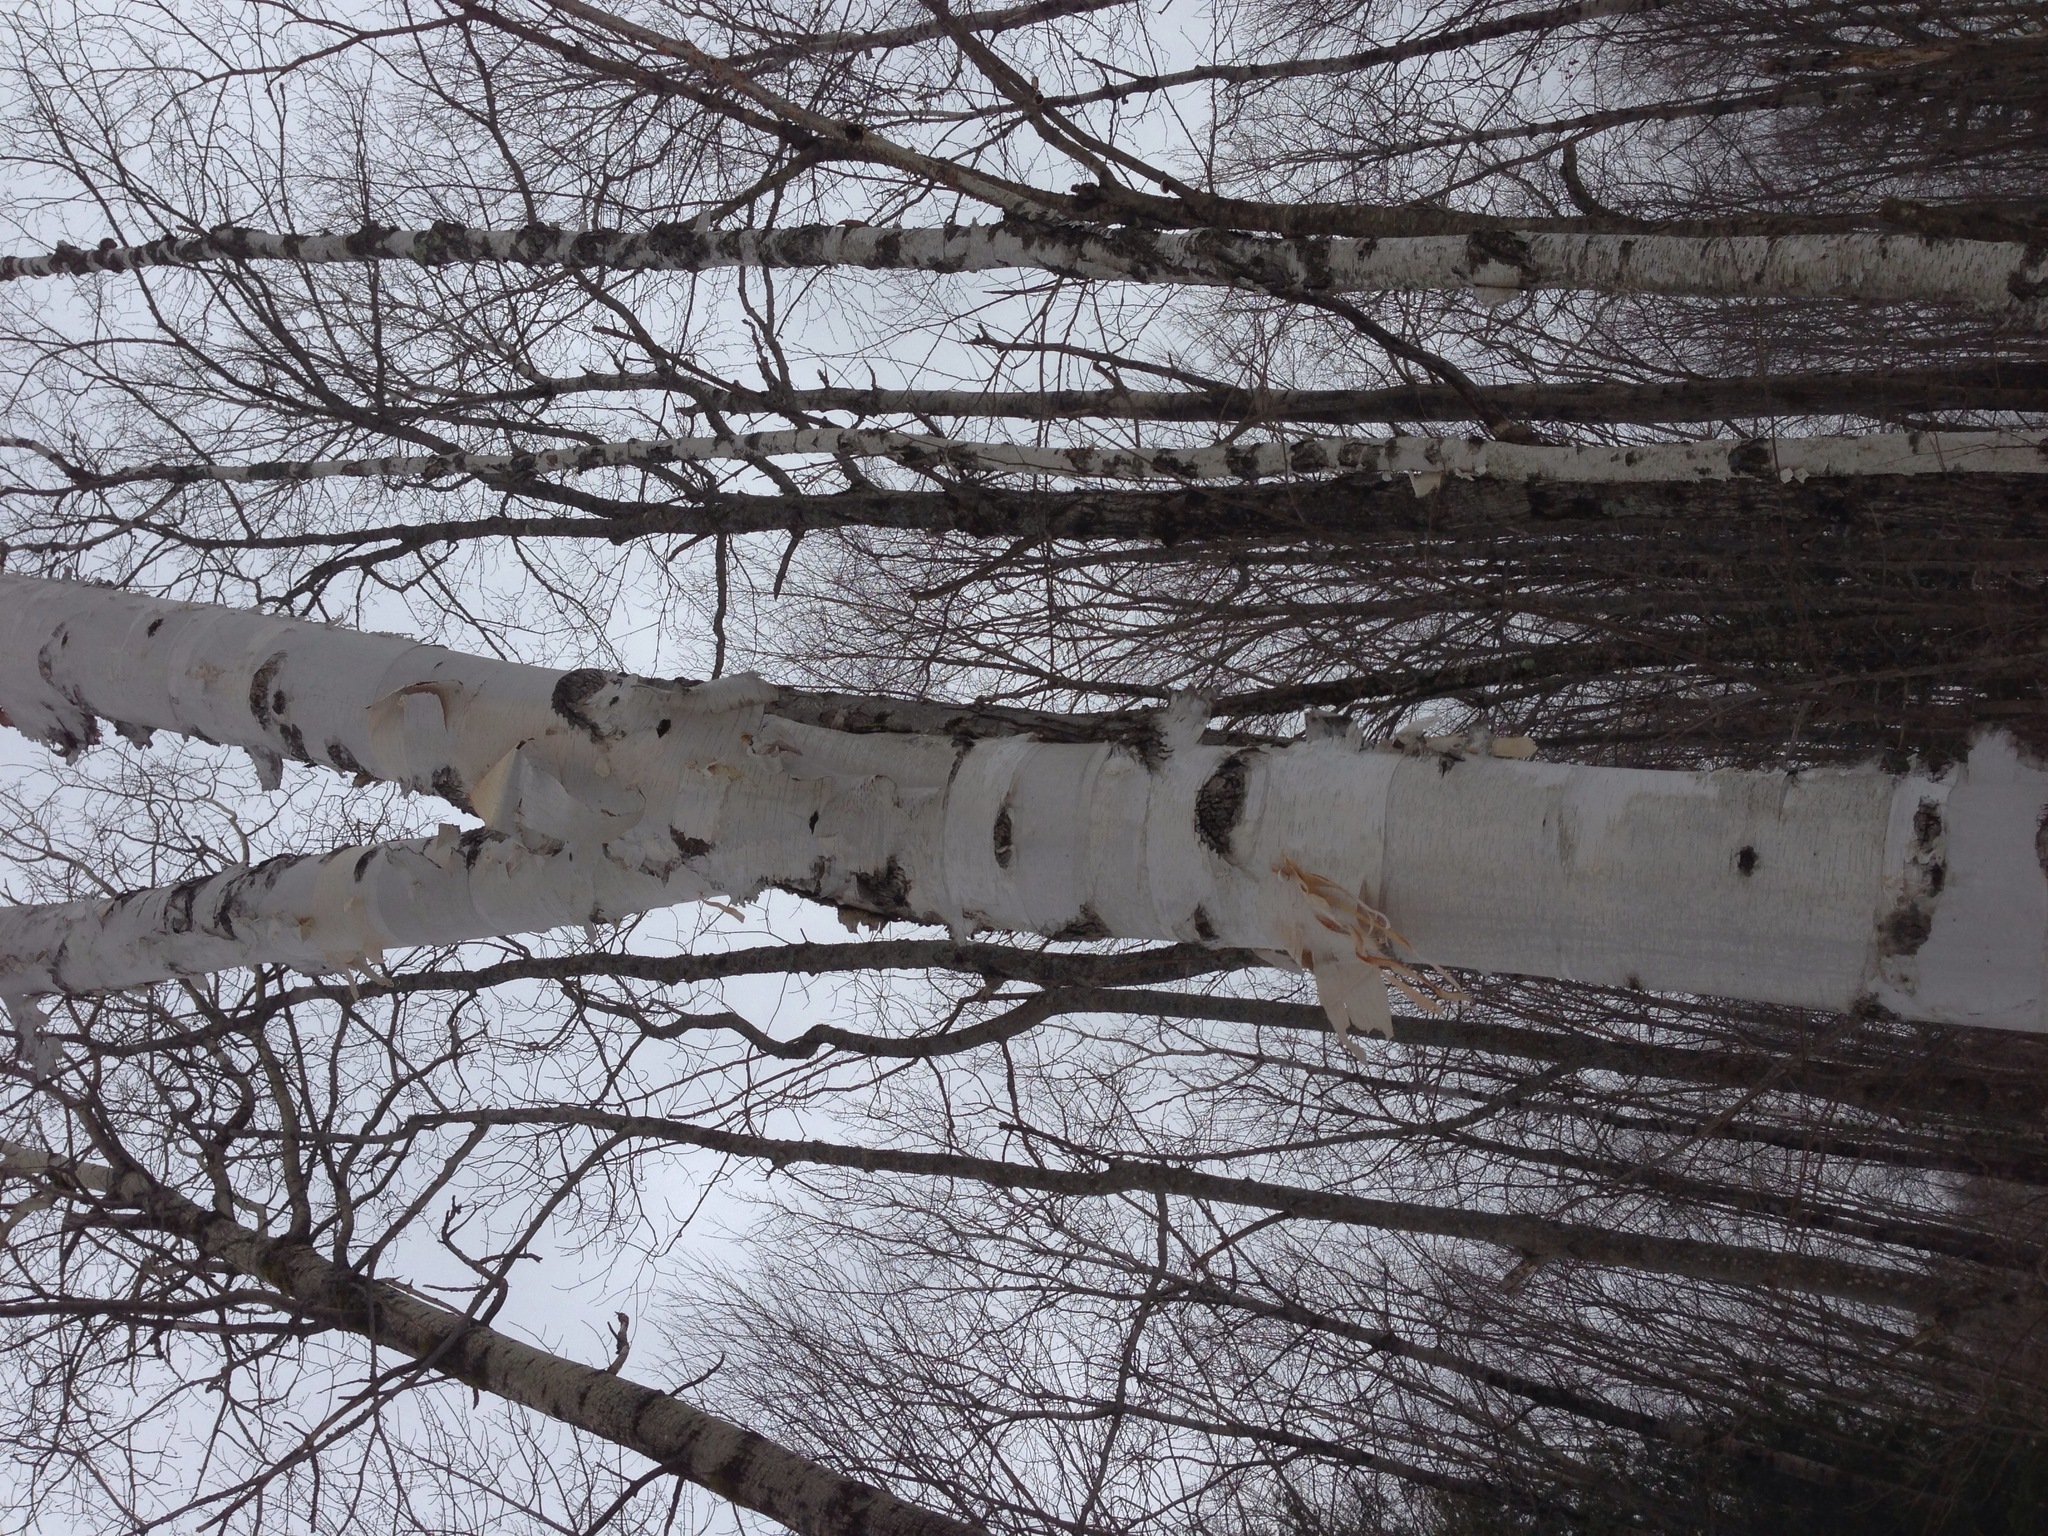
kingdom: Plantae
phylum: Tracheophyta
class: Magnoliopsida
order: Fagales
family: Betulaceae
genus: Betula
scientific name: Betula papyrifera
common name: Paper birch
